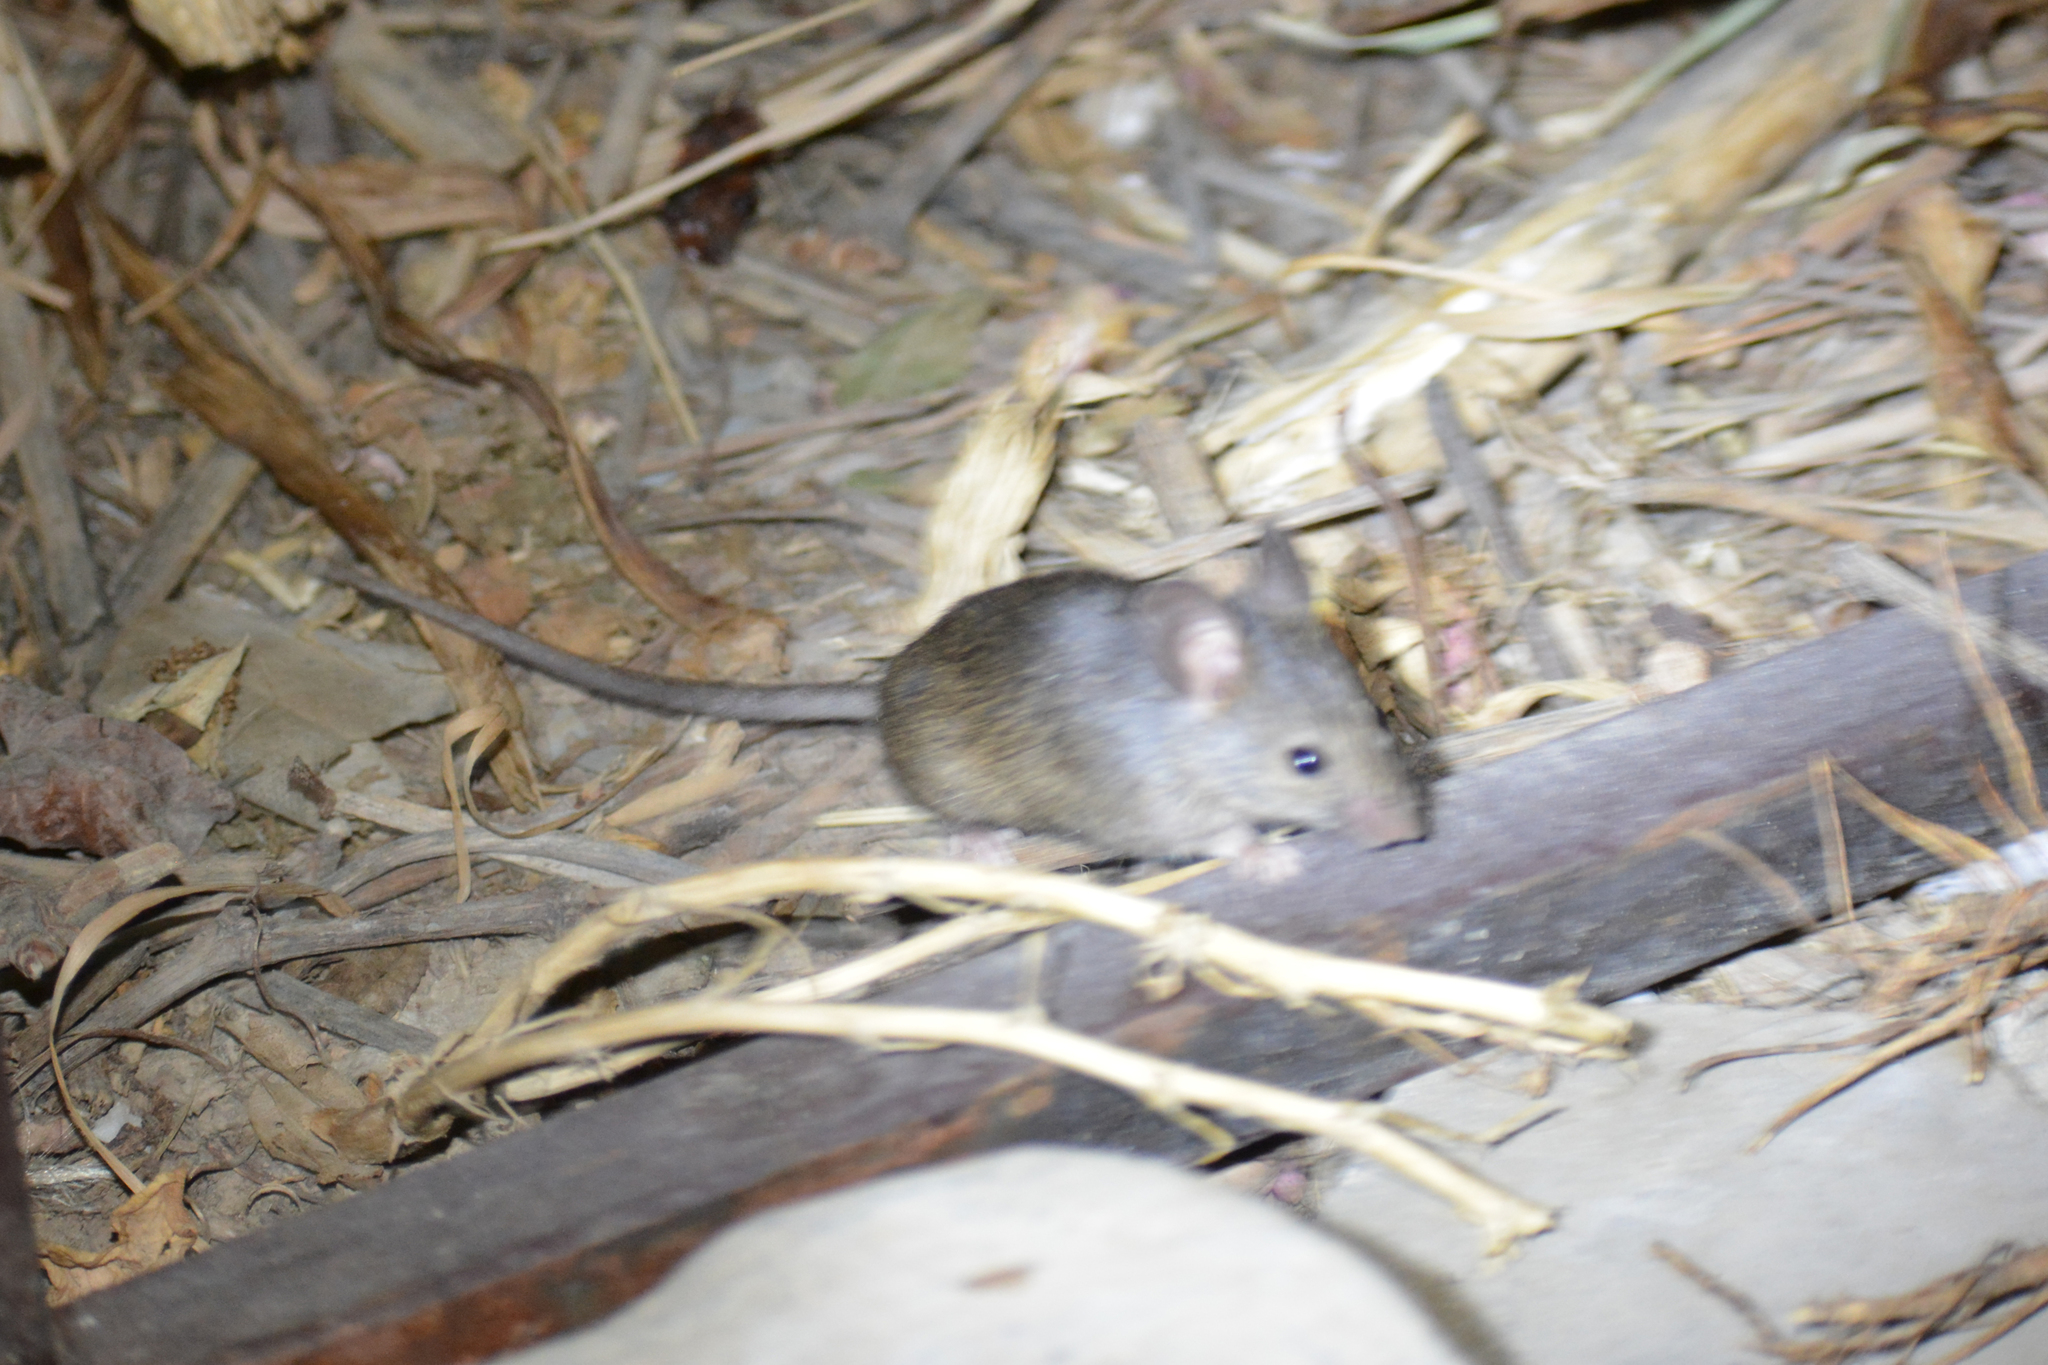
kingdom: Animalia
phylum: Chordata
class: Mammalia
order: Rodentia
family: Muridae
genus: Mus
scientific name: Mus macedonicus
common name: Macedonian mouse
